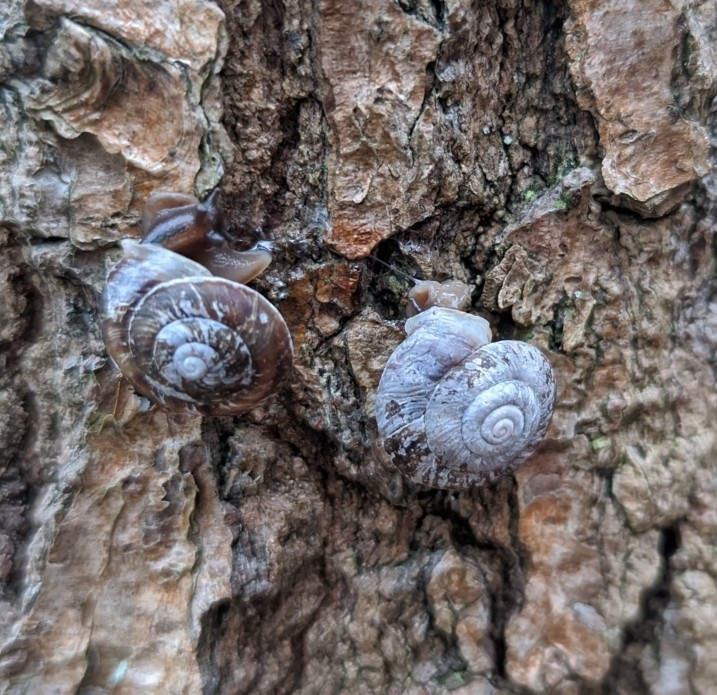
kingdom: Animalia
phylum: Mollusca
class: Gastropoda
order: Stylommatophora
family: Helicidae
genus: Helicigona
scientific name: Helicigona lapicida
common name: Lapidary snail
